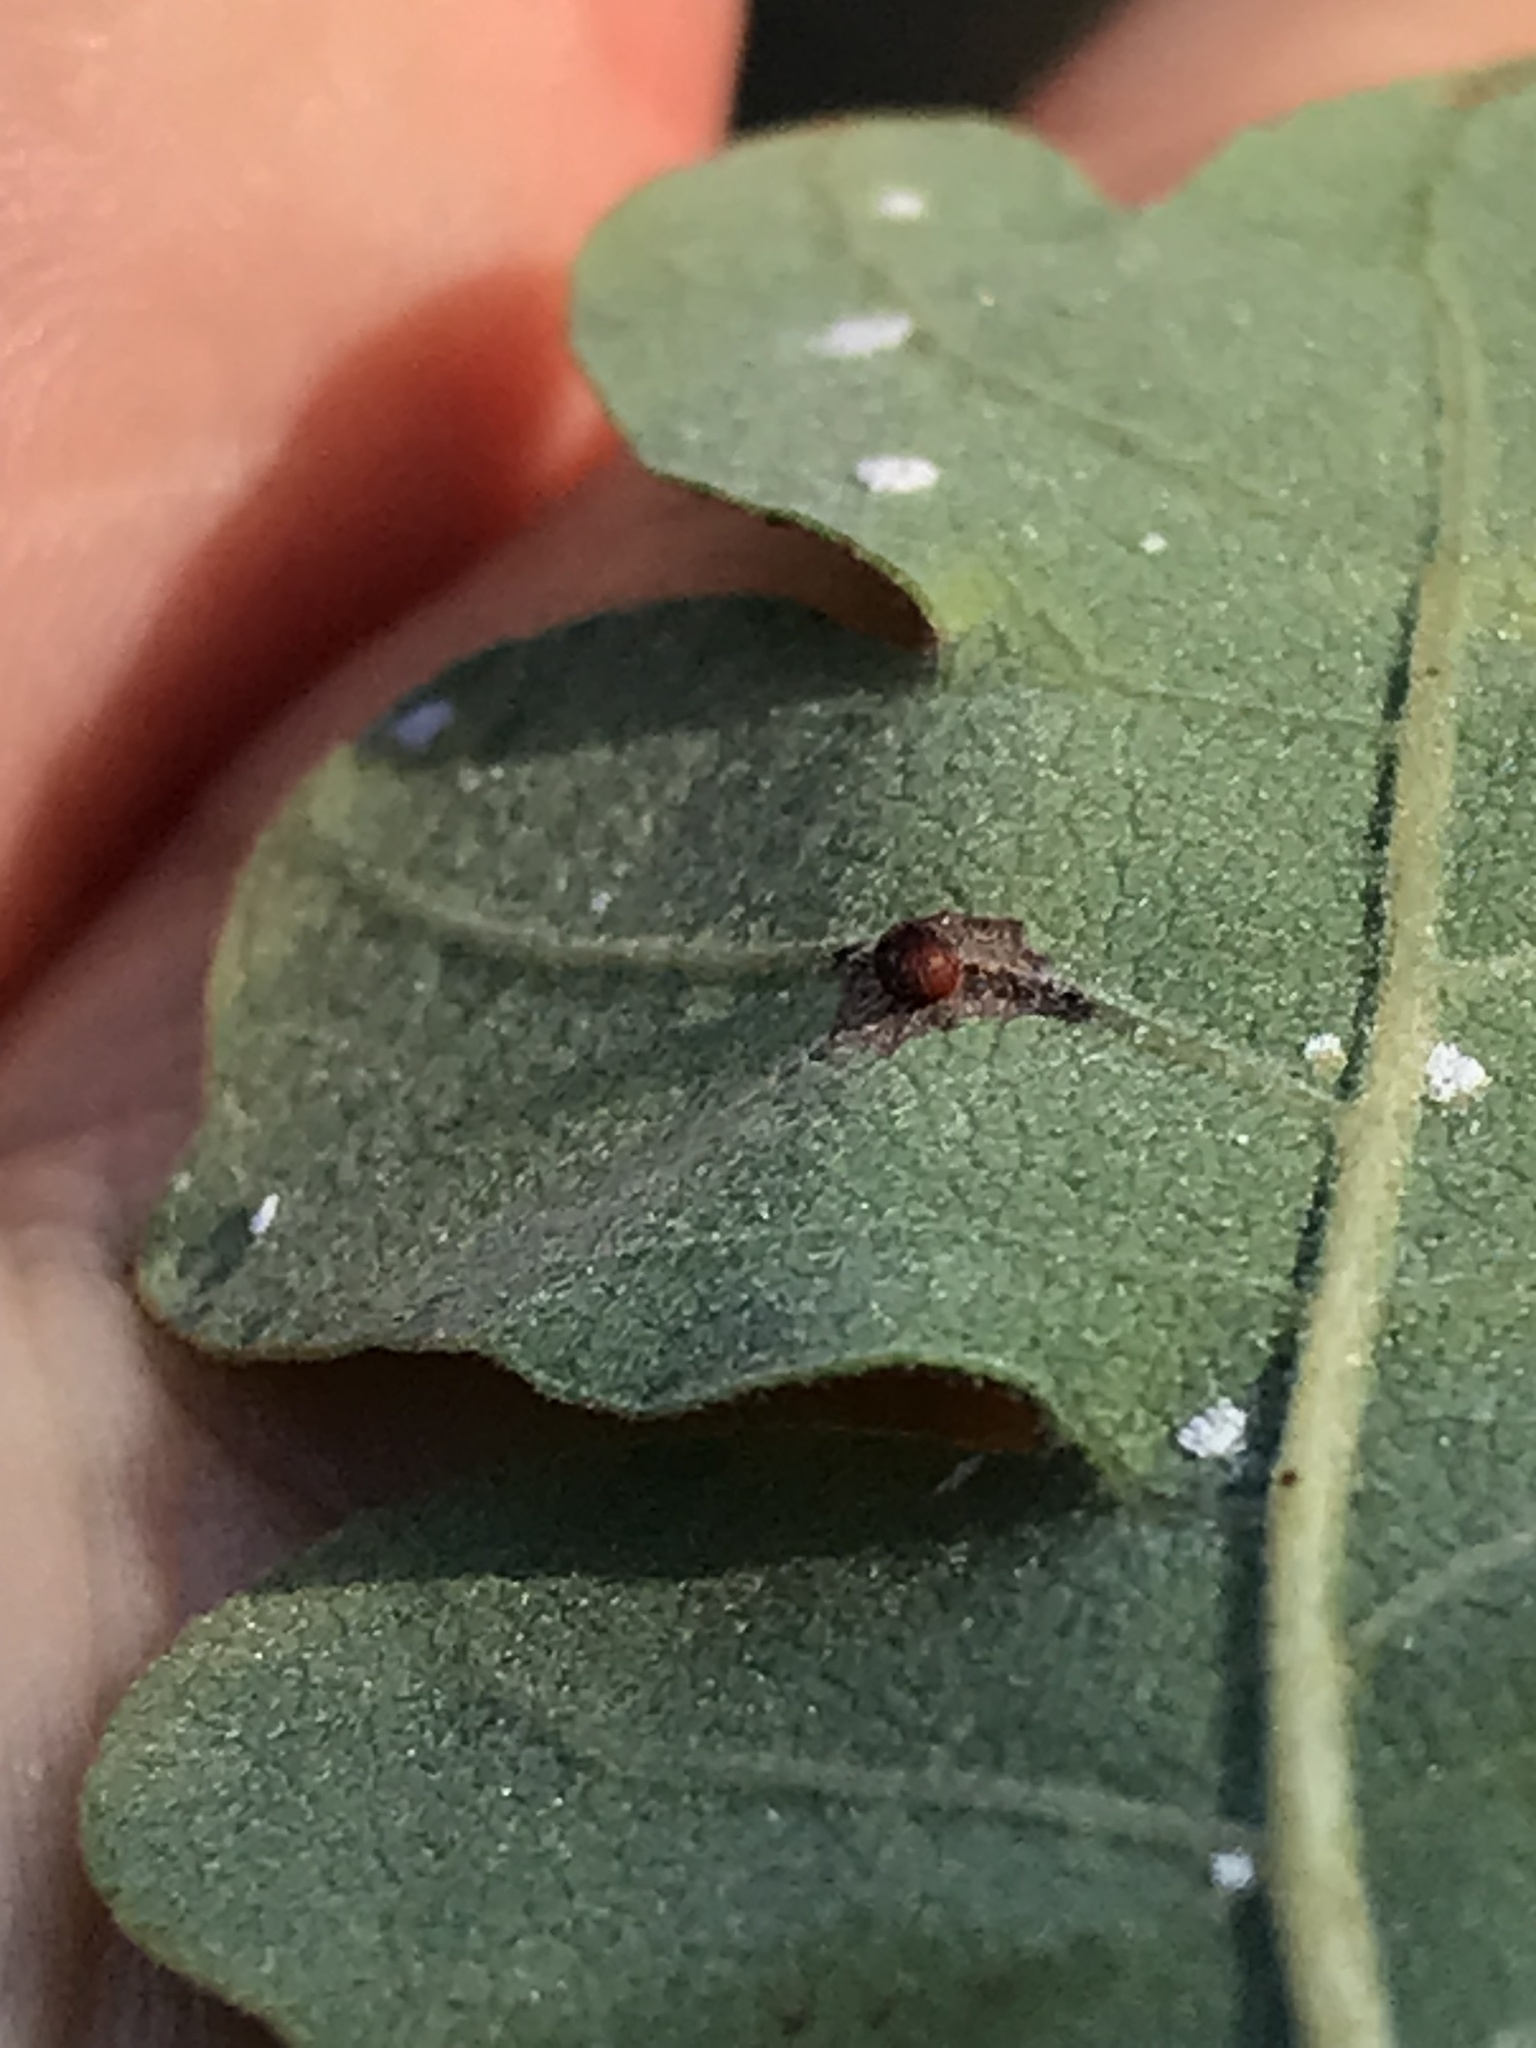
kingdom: Animalia
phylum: Arthropoda
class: Insecta
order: Hymenoptera
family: Cynipidae
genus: Neuroterus
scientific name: Neuroterus saltarius
